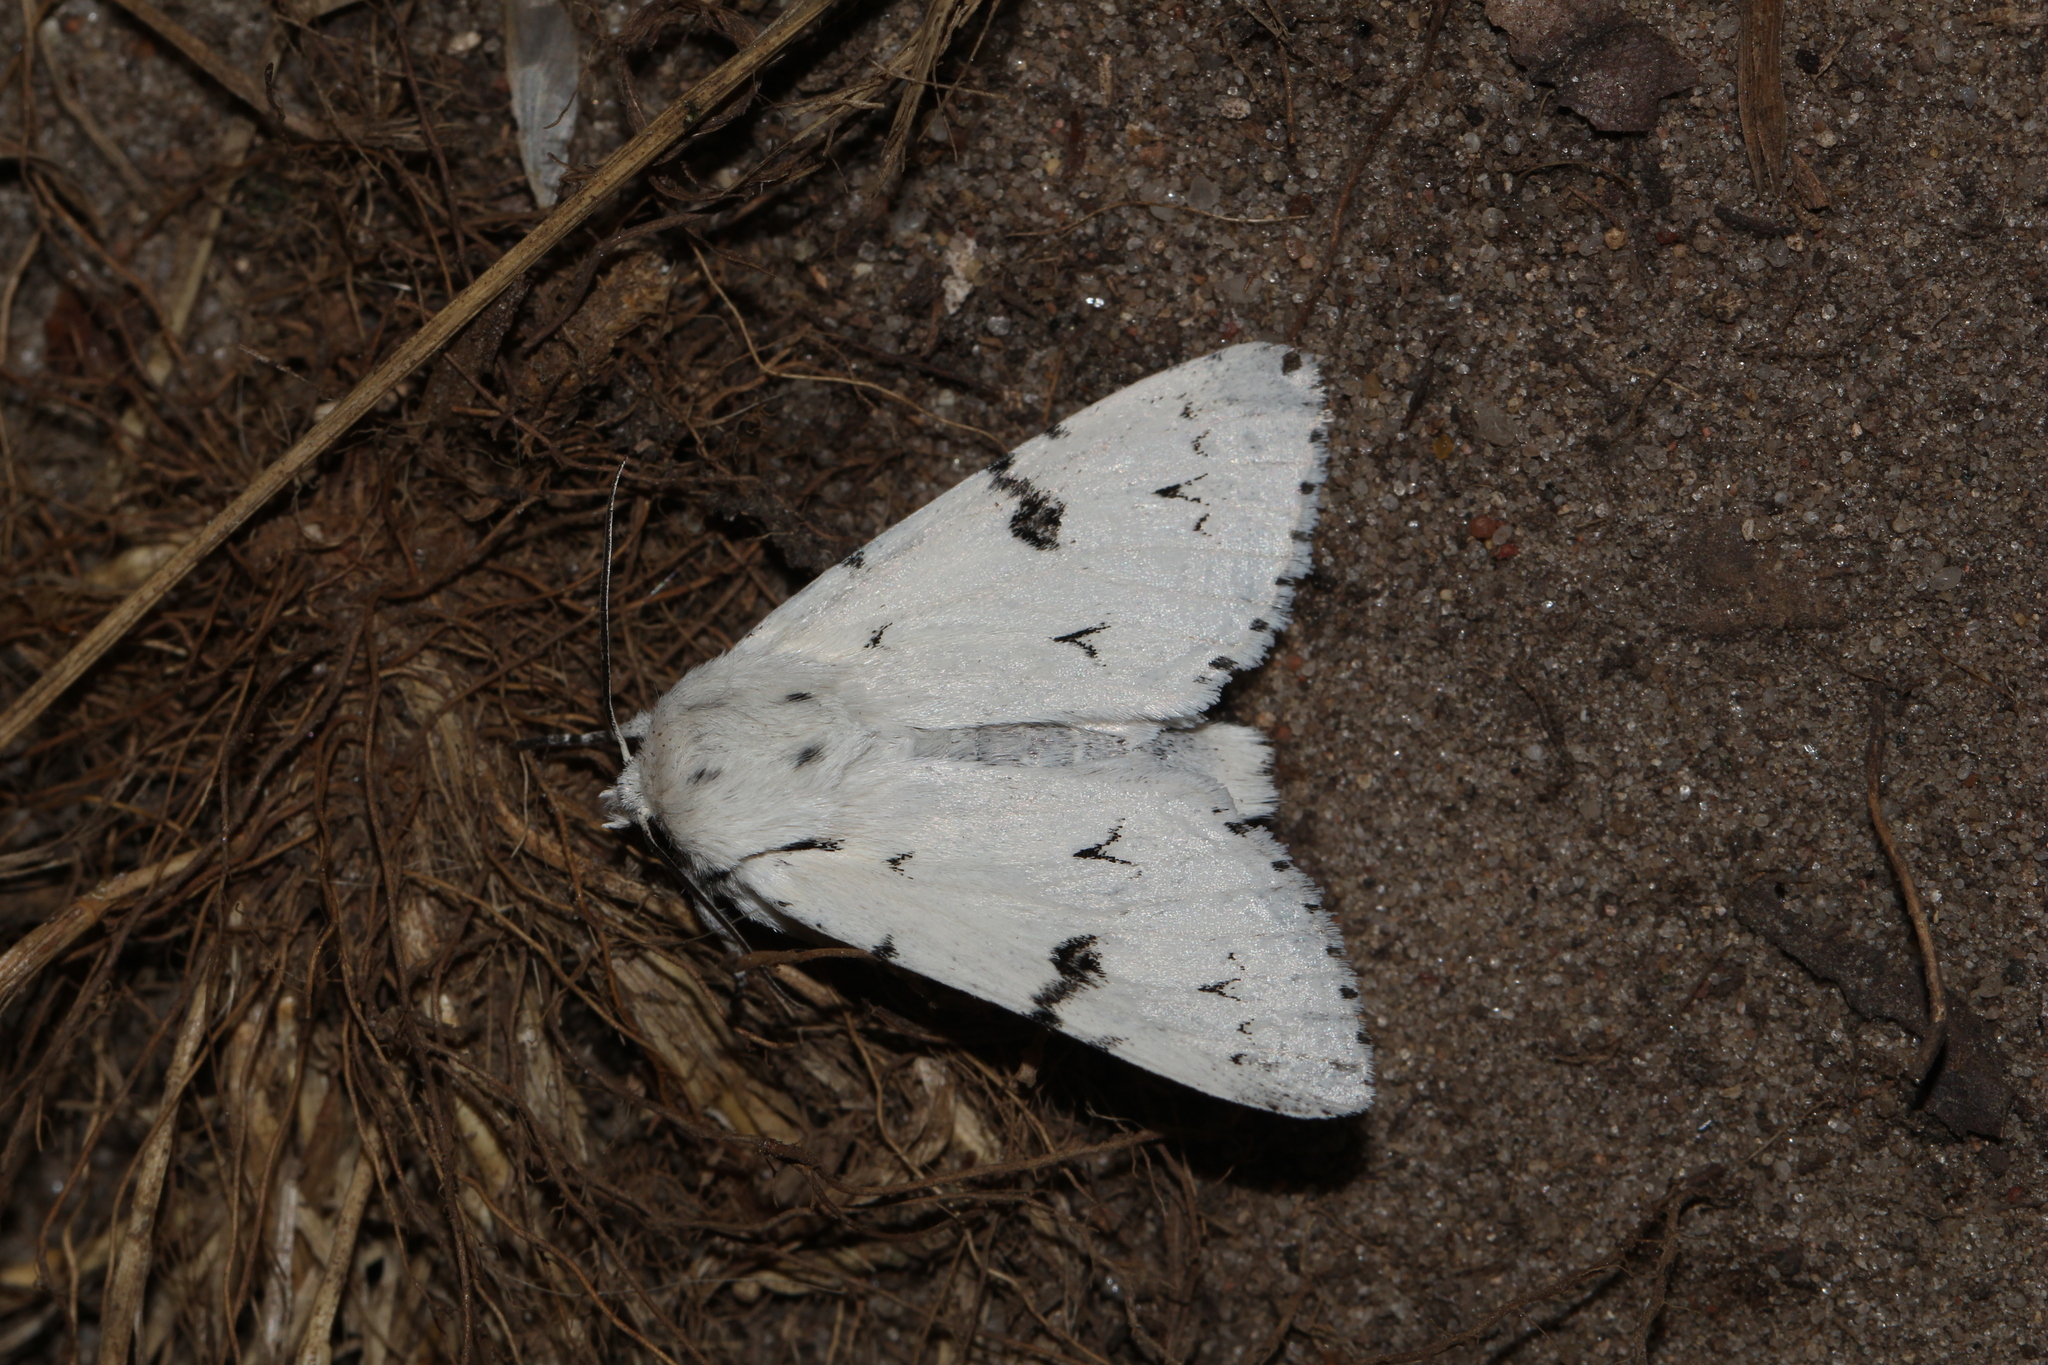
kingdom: Animalia
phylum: Arthropoda
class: Insecta
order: Lepidoptera
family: Noctuidae
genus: Acronicta
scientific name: Acronicta leporina
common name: Miller
